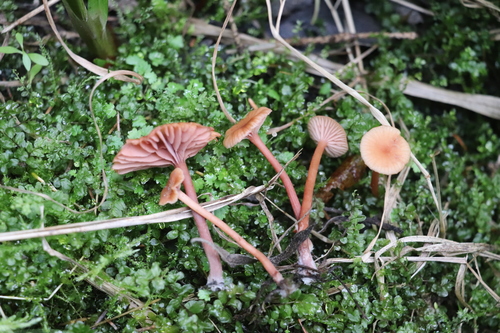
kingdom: Fungi
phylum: Basidiomycota
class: Agaricomycetes
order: Agaricales
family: Hydnangiaceae
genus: Laccaria
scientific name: Laccaria laccata
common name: Deceiver
